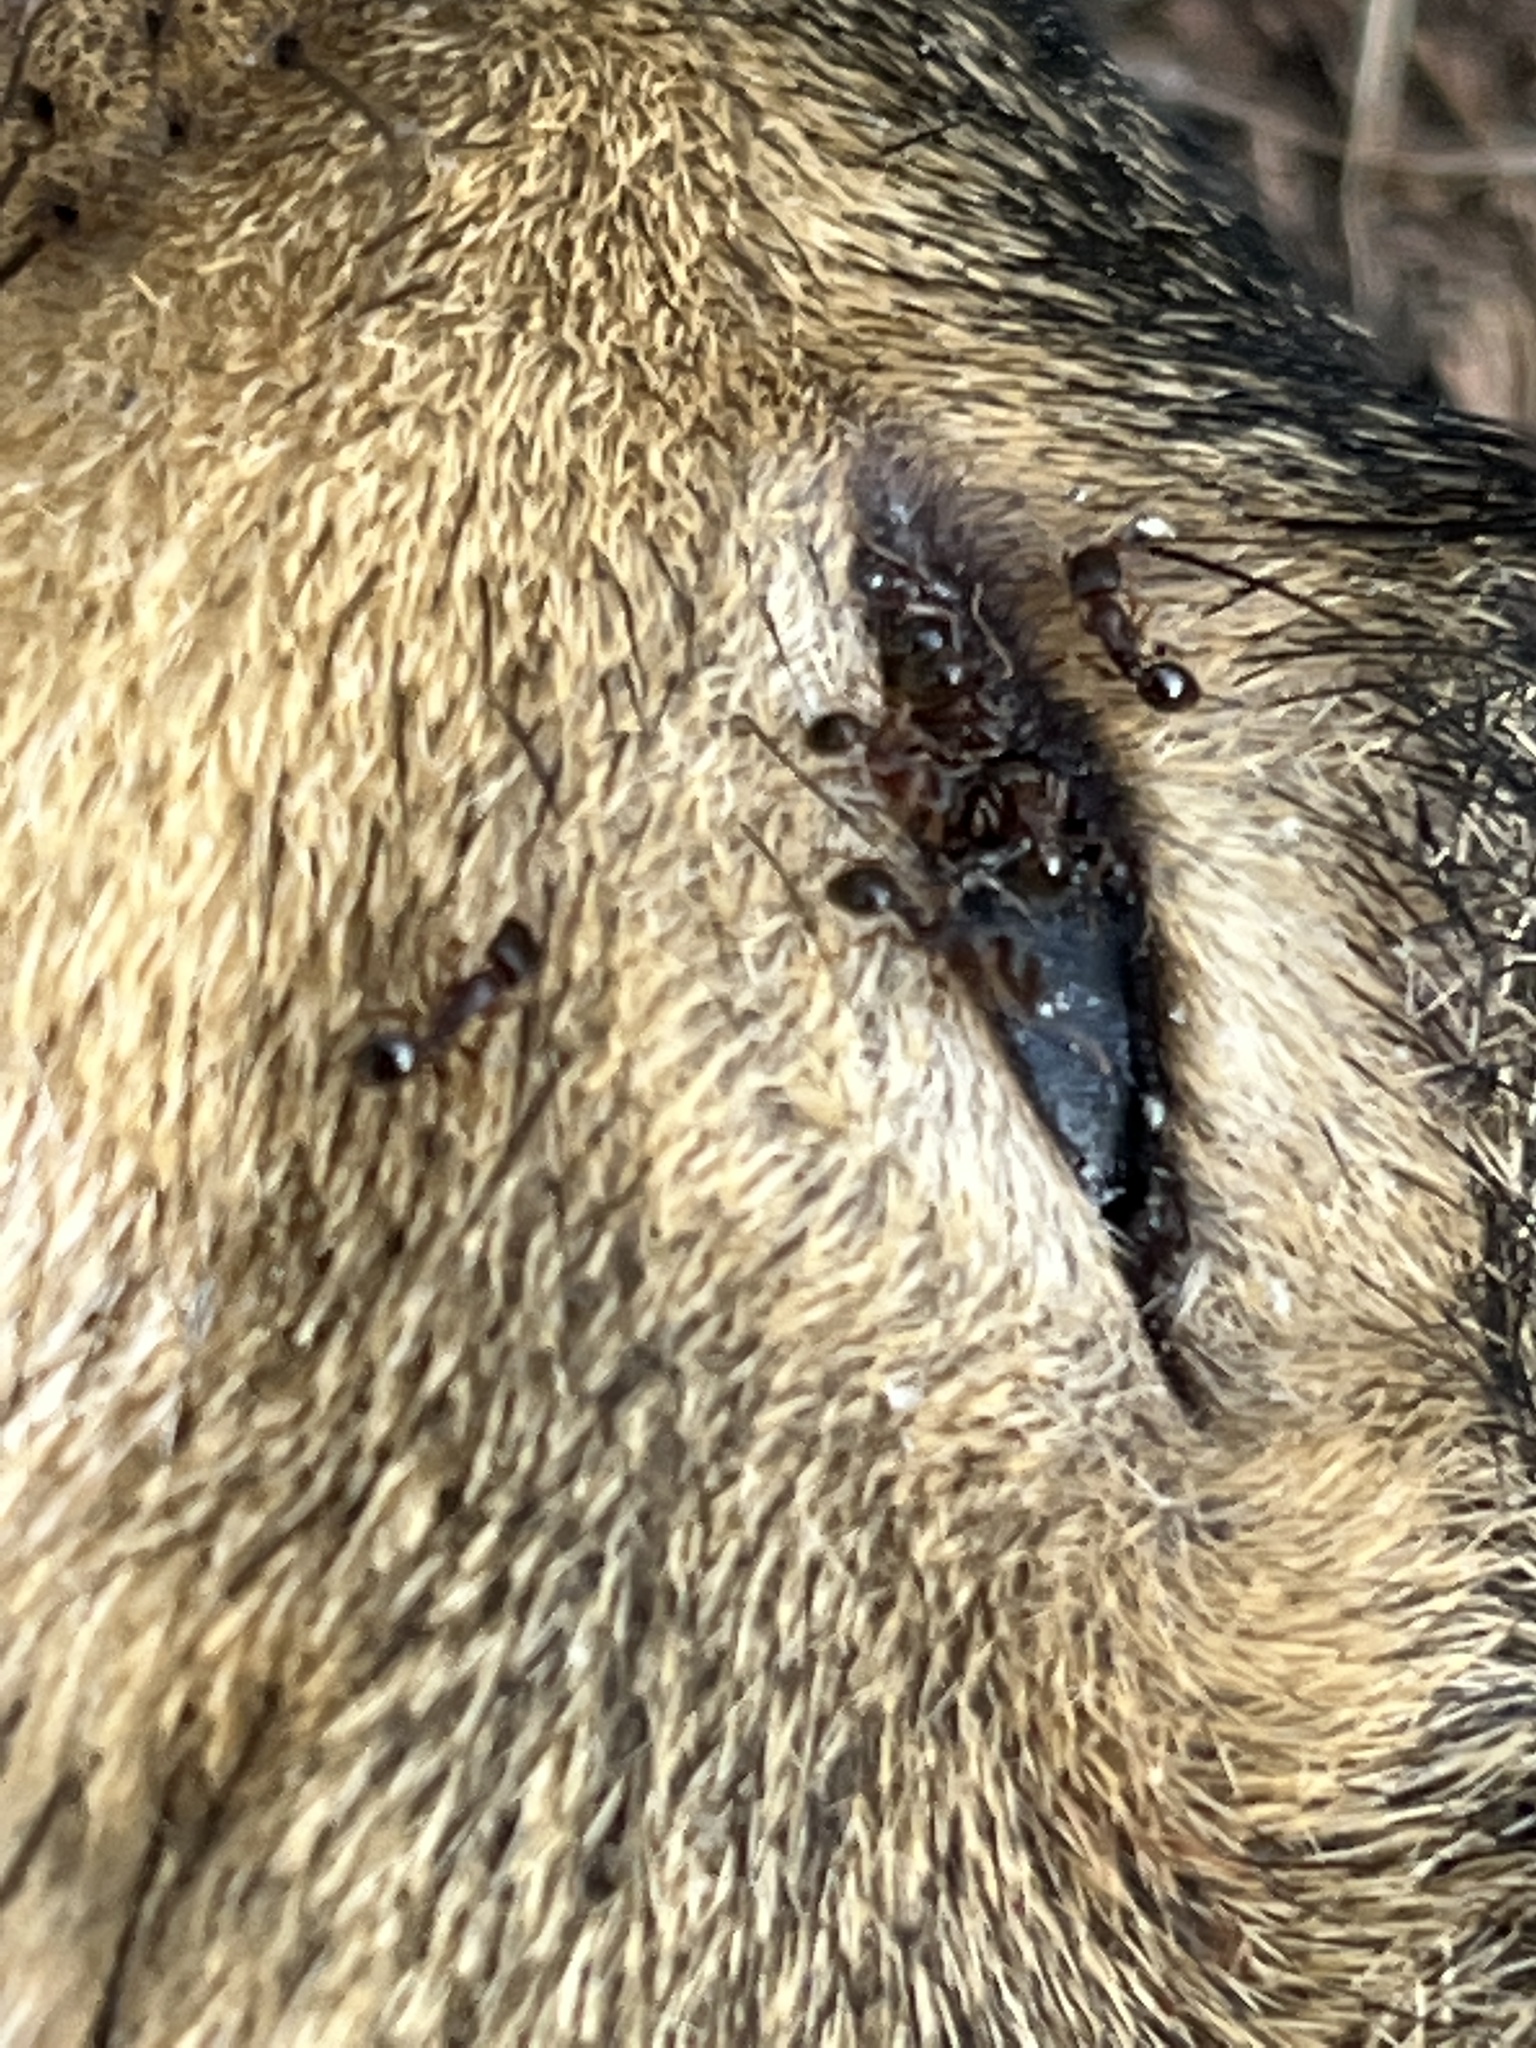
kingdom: Animalia
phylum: Arthropoda
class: Insecta
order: Hymenoptera
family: Formicidae
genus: Tetramorium
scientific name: Tetramorium immigrans
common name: Pavement ant
